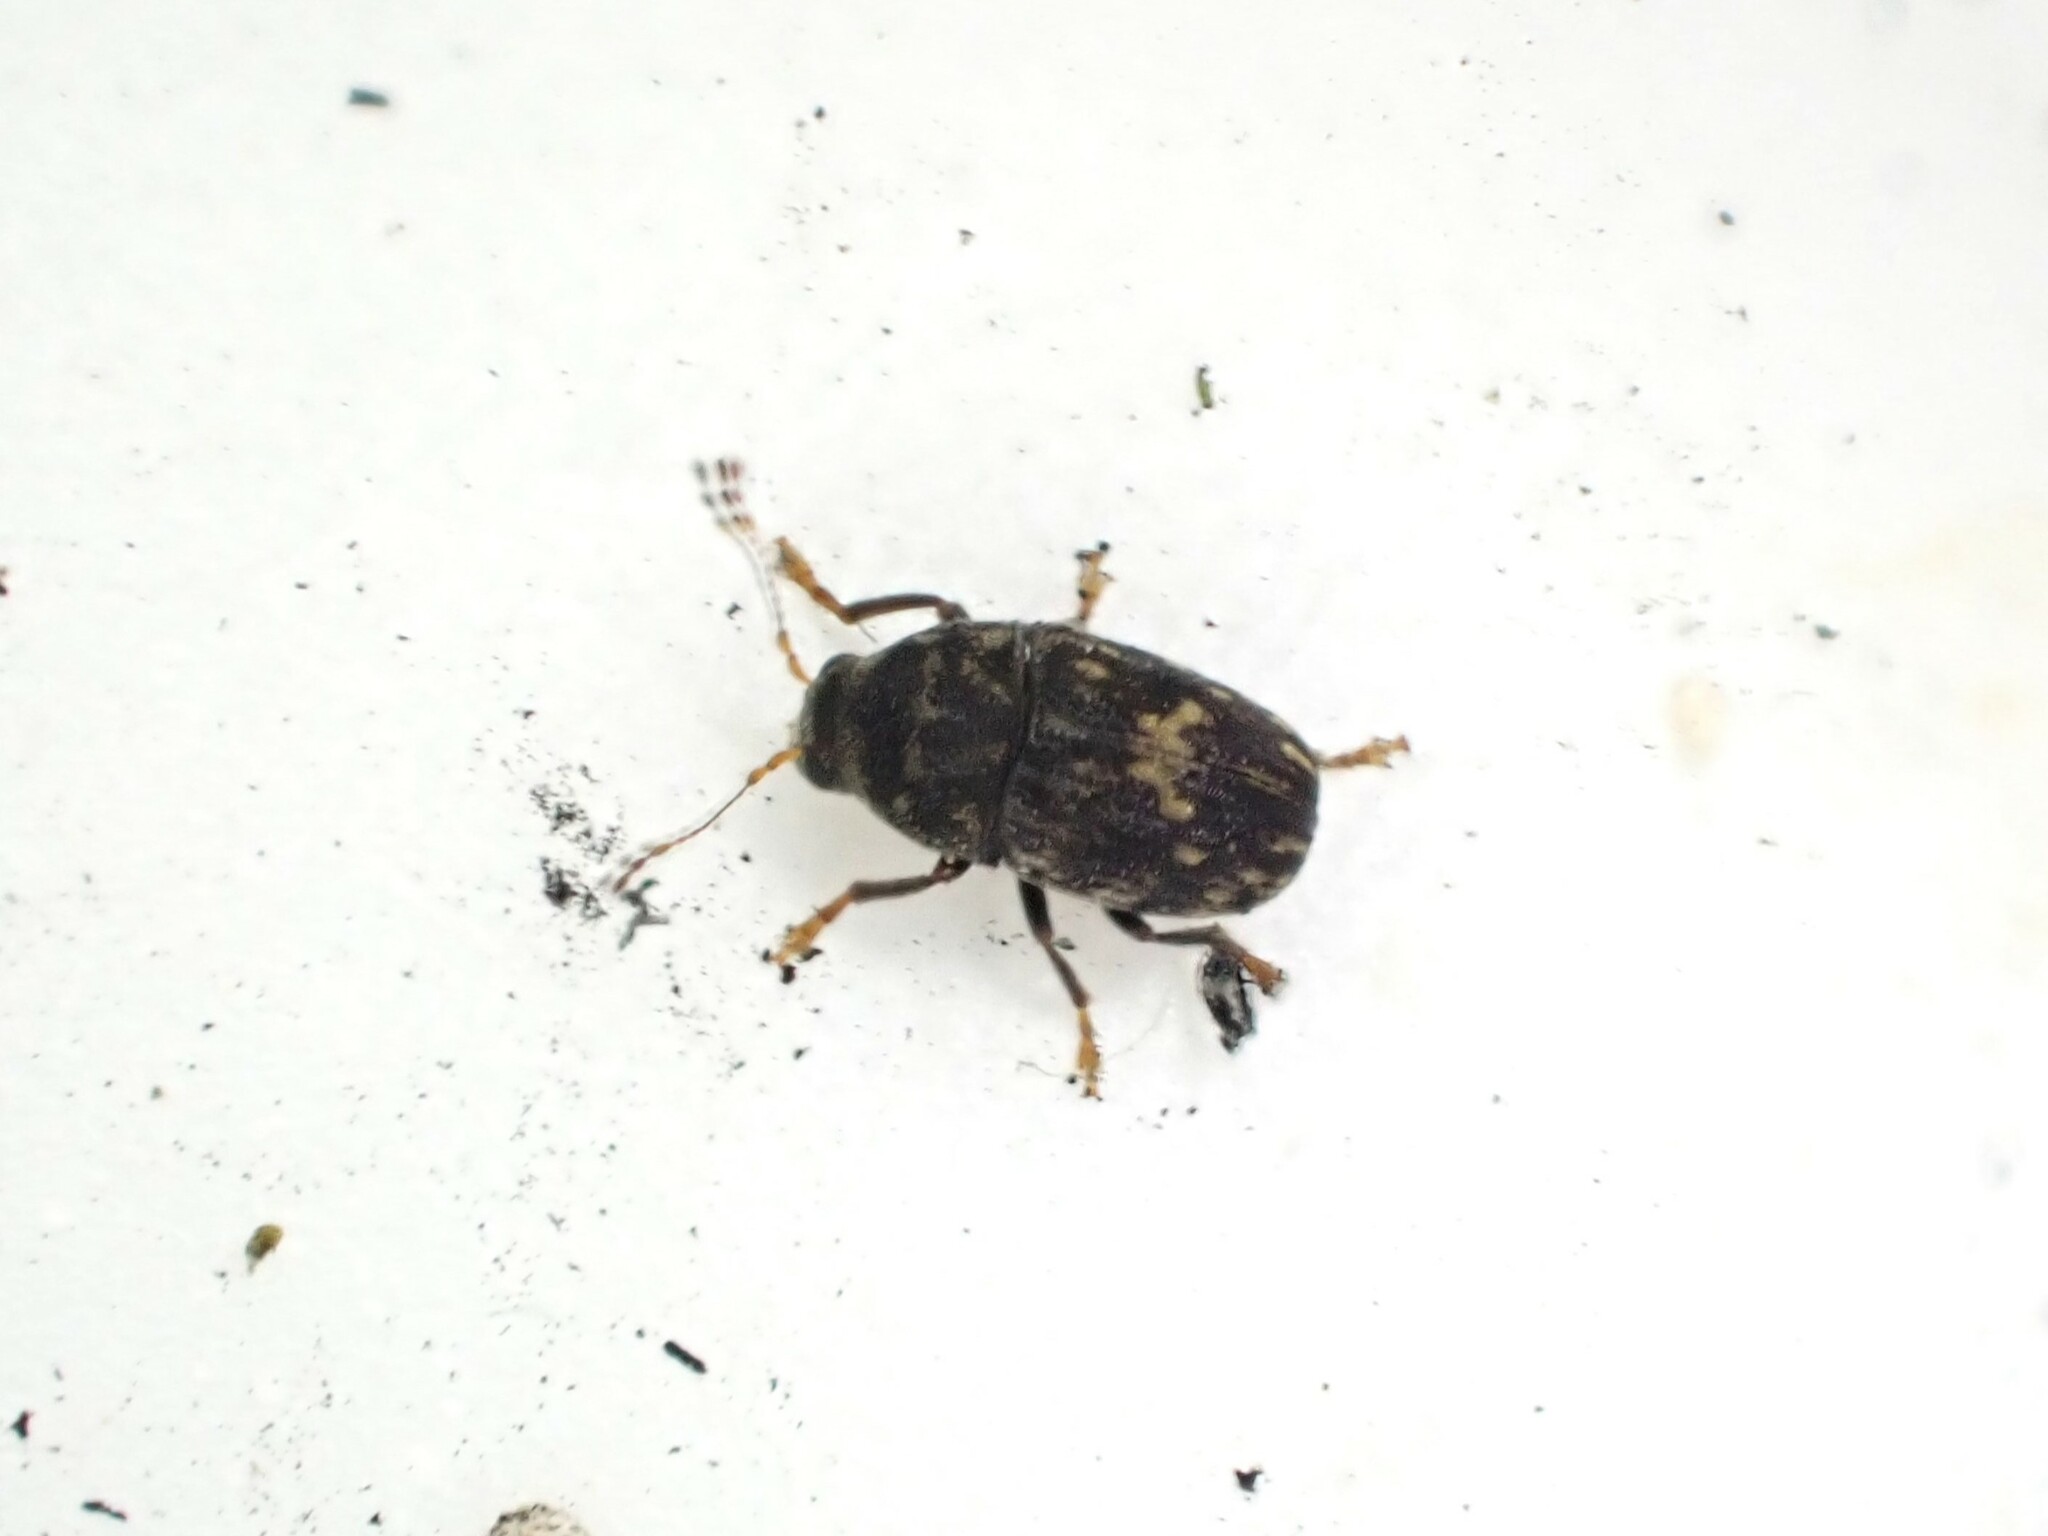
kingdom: Animalia
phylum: Arthropoda
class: Insecta
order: Coleoptera
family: Anthribidae
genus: Notochoragus
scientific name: Notochoragus
